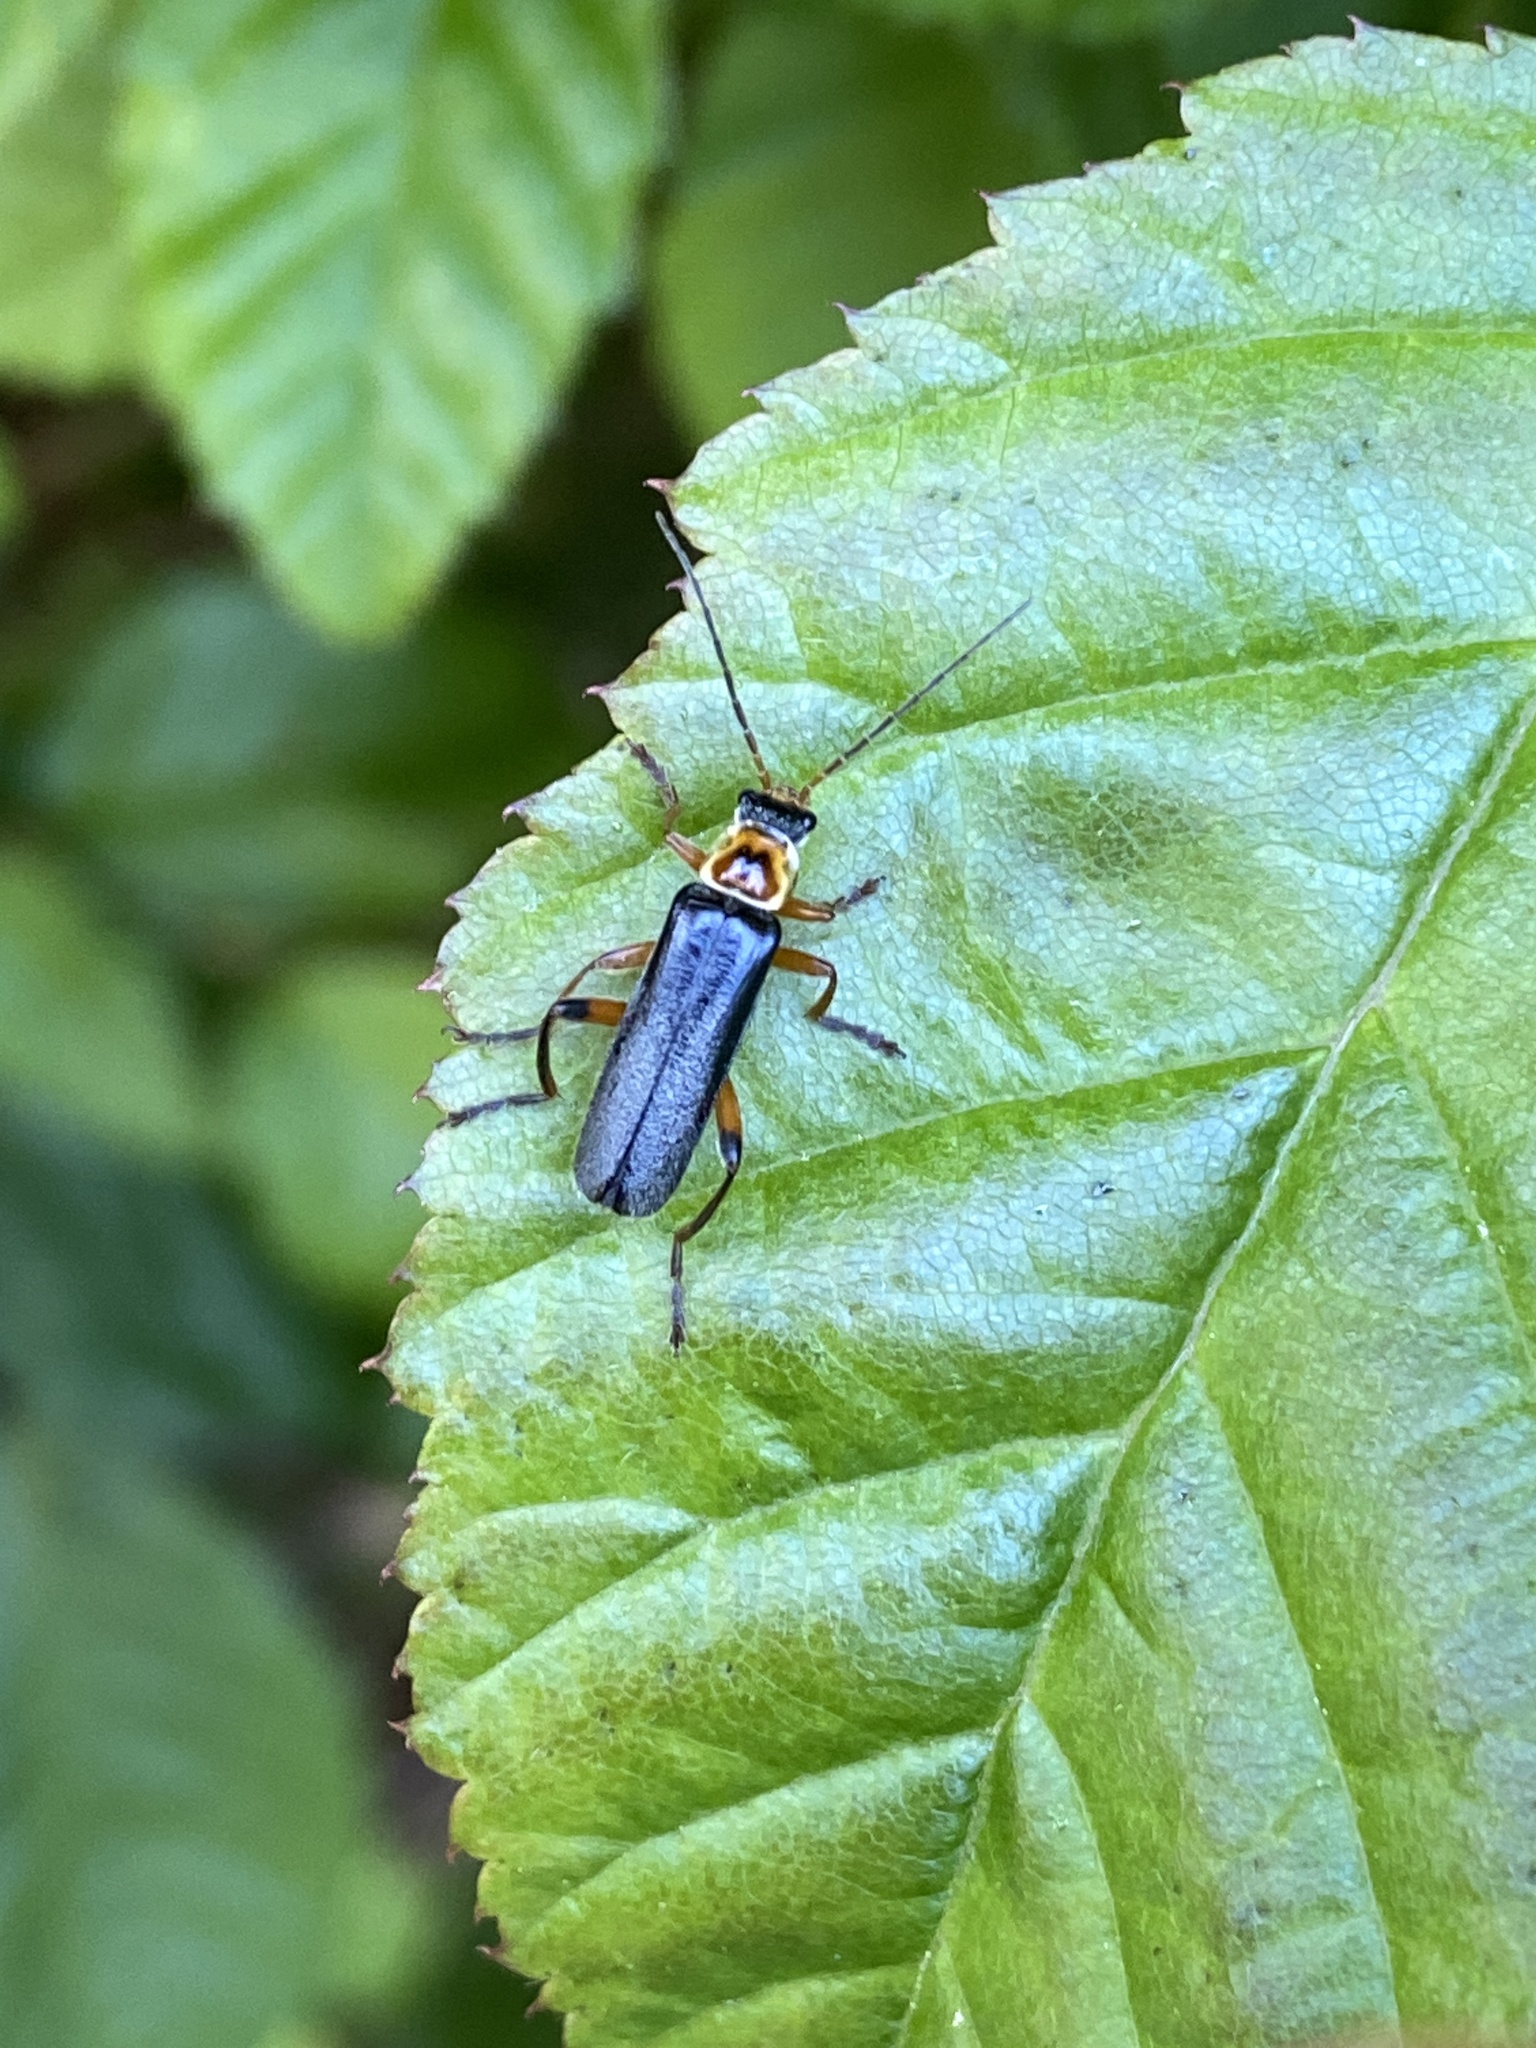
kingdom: Animalia
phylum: Arthropoda
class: Insecta
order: Coleoptera
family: Cantharidae
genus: Cantharis
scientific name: Cantharis nigricans
